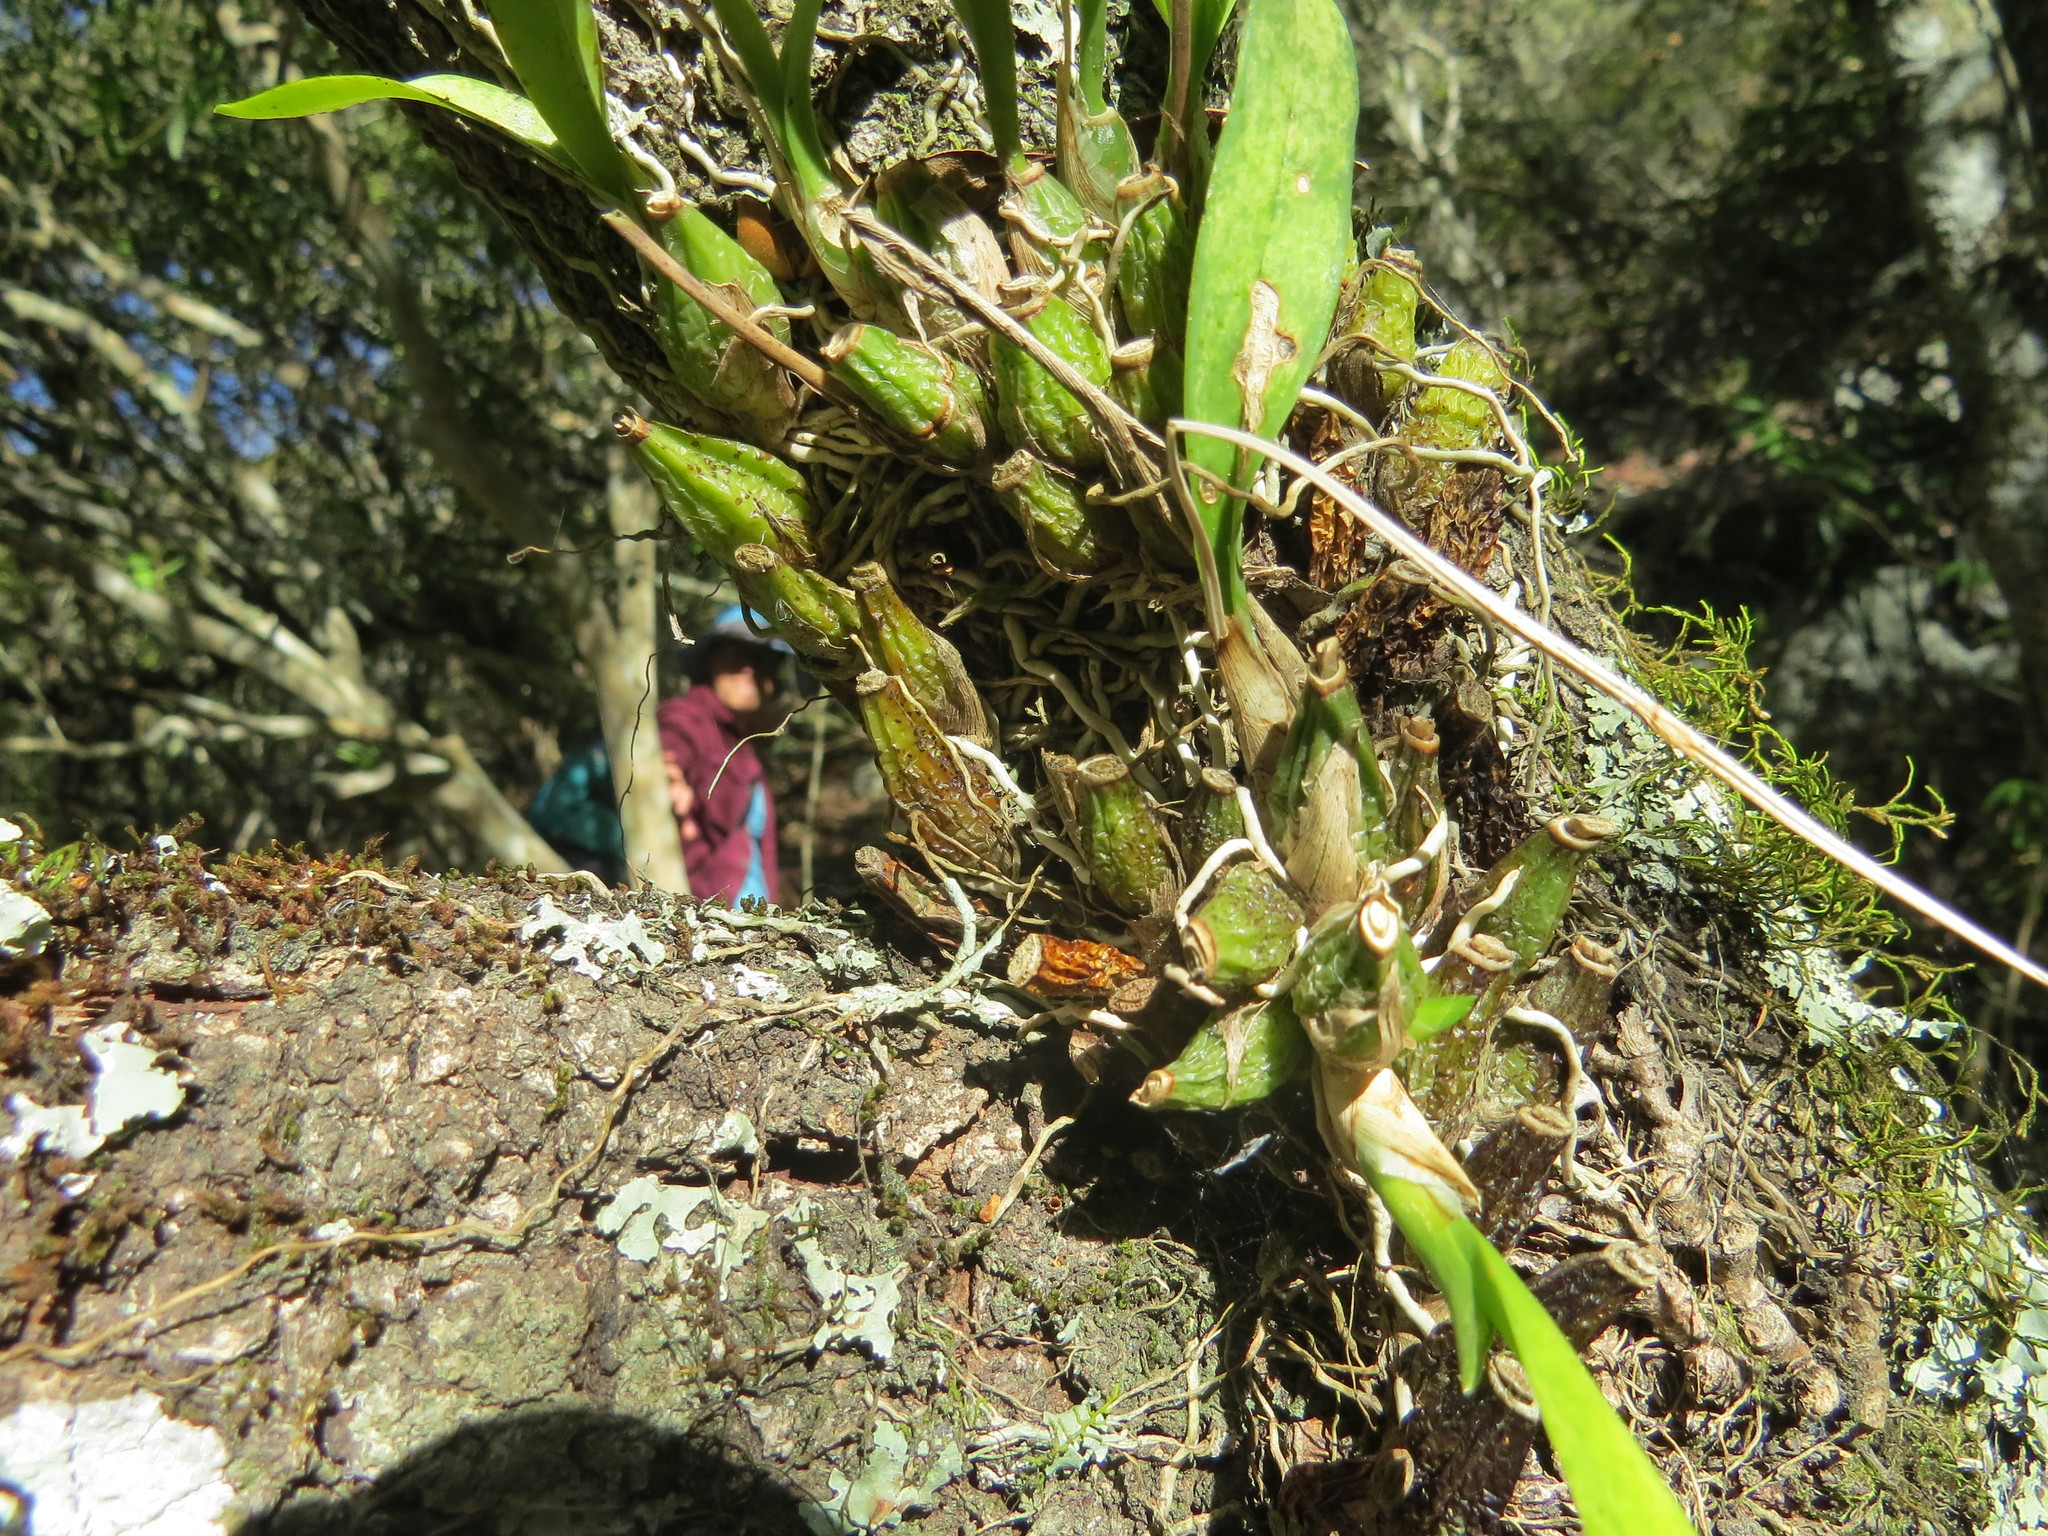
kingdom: Plantae
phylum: Tracheophyta
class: Liliopsida
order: Asparagales
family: Orchidaceae
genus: Gomesa
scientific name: Gomesa bifolia
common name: Dancing ladies
